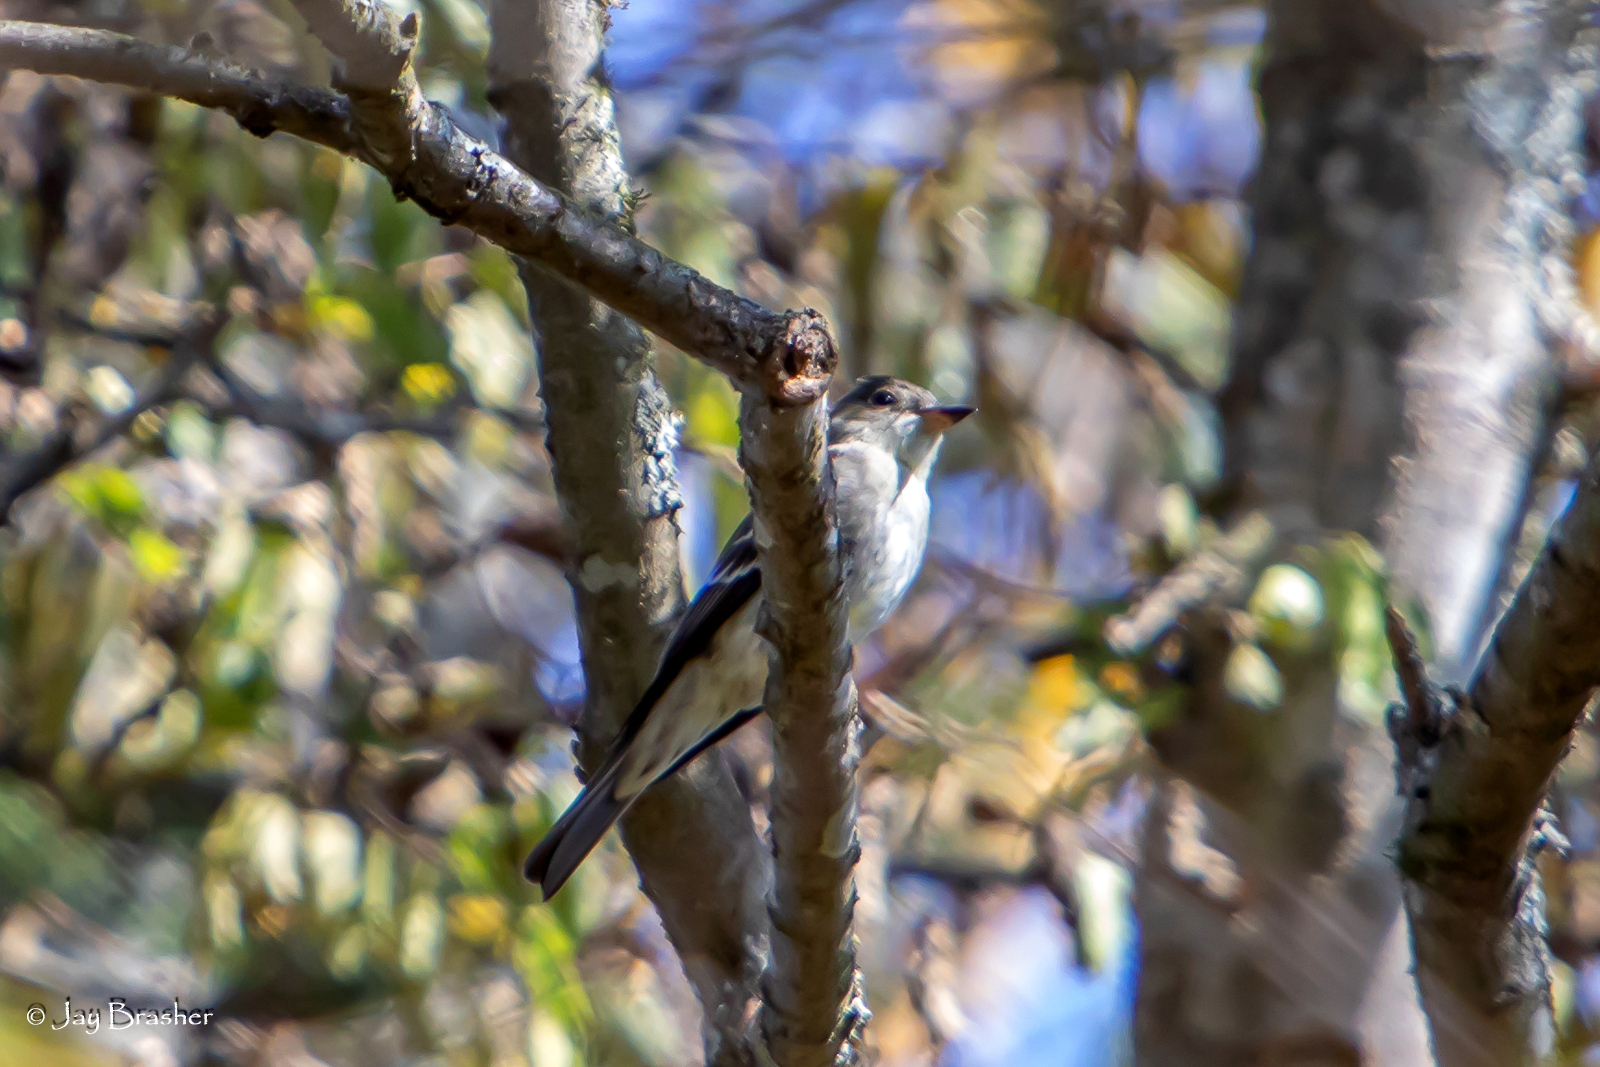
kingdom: Animalia
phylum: Chordata
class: Aves
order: Passeriformes
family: Tyrannidae
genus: Contopus
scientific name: Contopus virens
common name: Eastern wood-pewee
